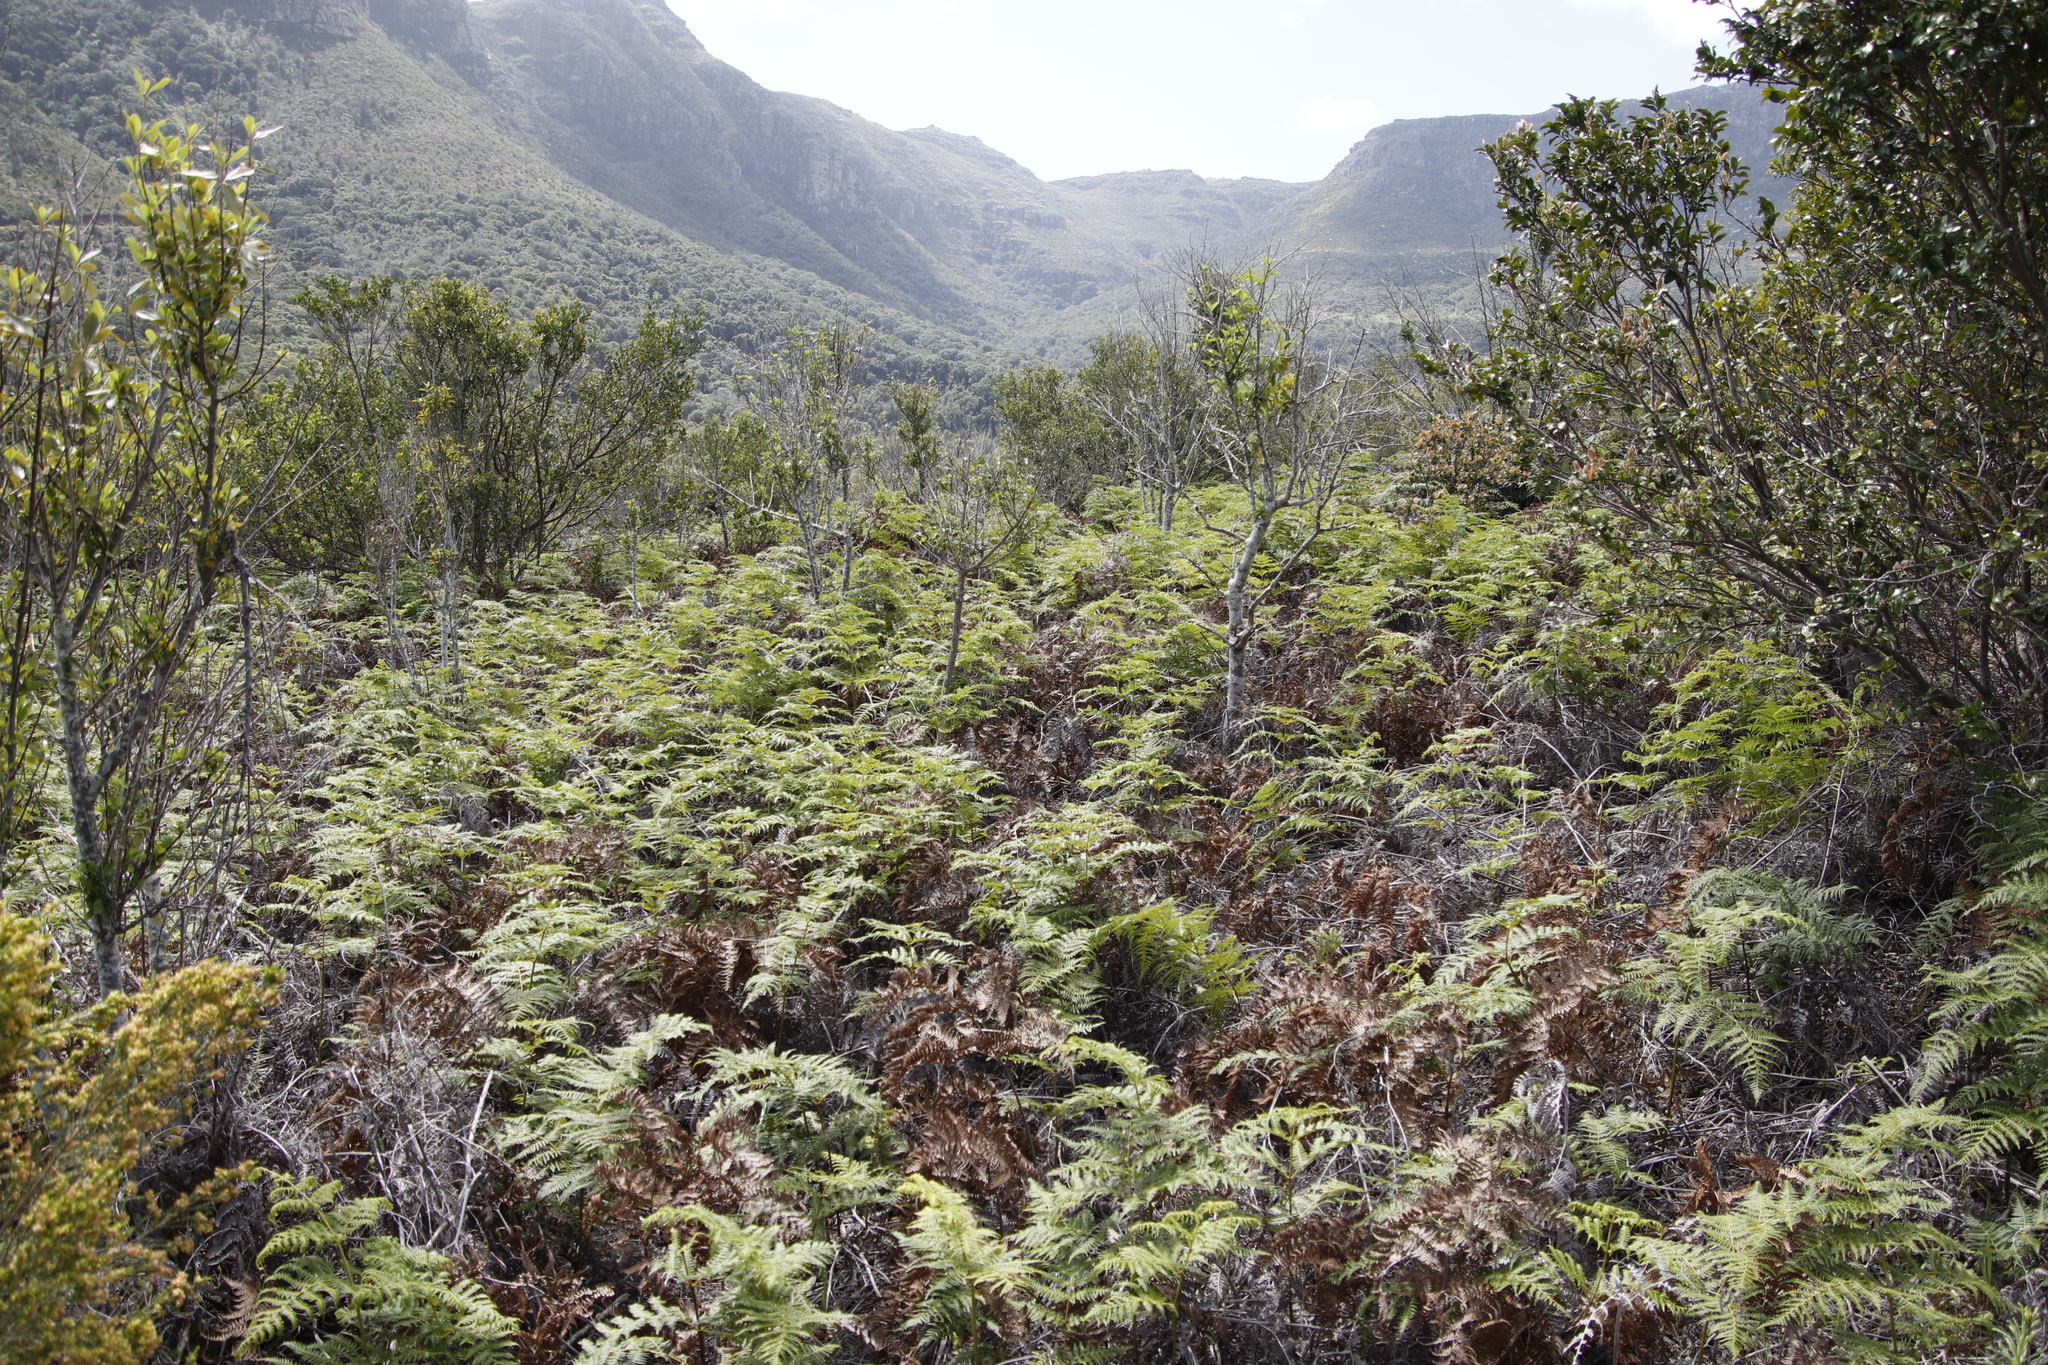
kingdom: Plantae
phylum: Tracheophyta
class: Polypodiopsida
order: Polypodiales
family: Dennstaedtiaceae
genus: Pteridium
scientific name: Pteridium aquilinum
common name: Bracken
